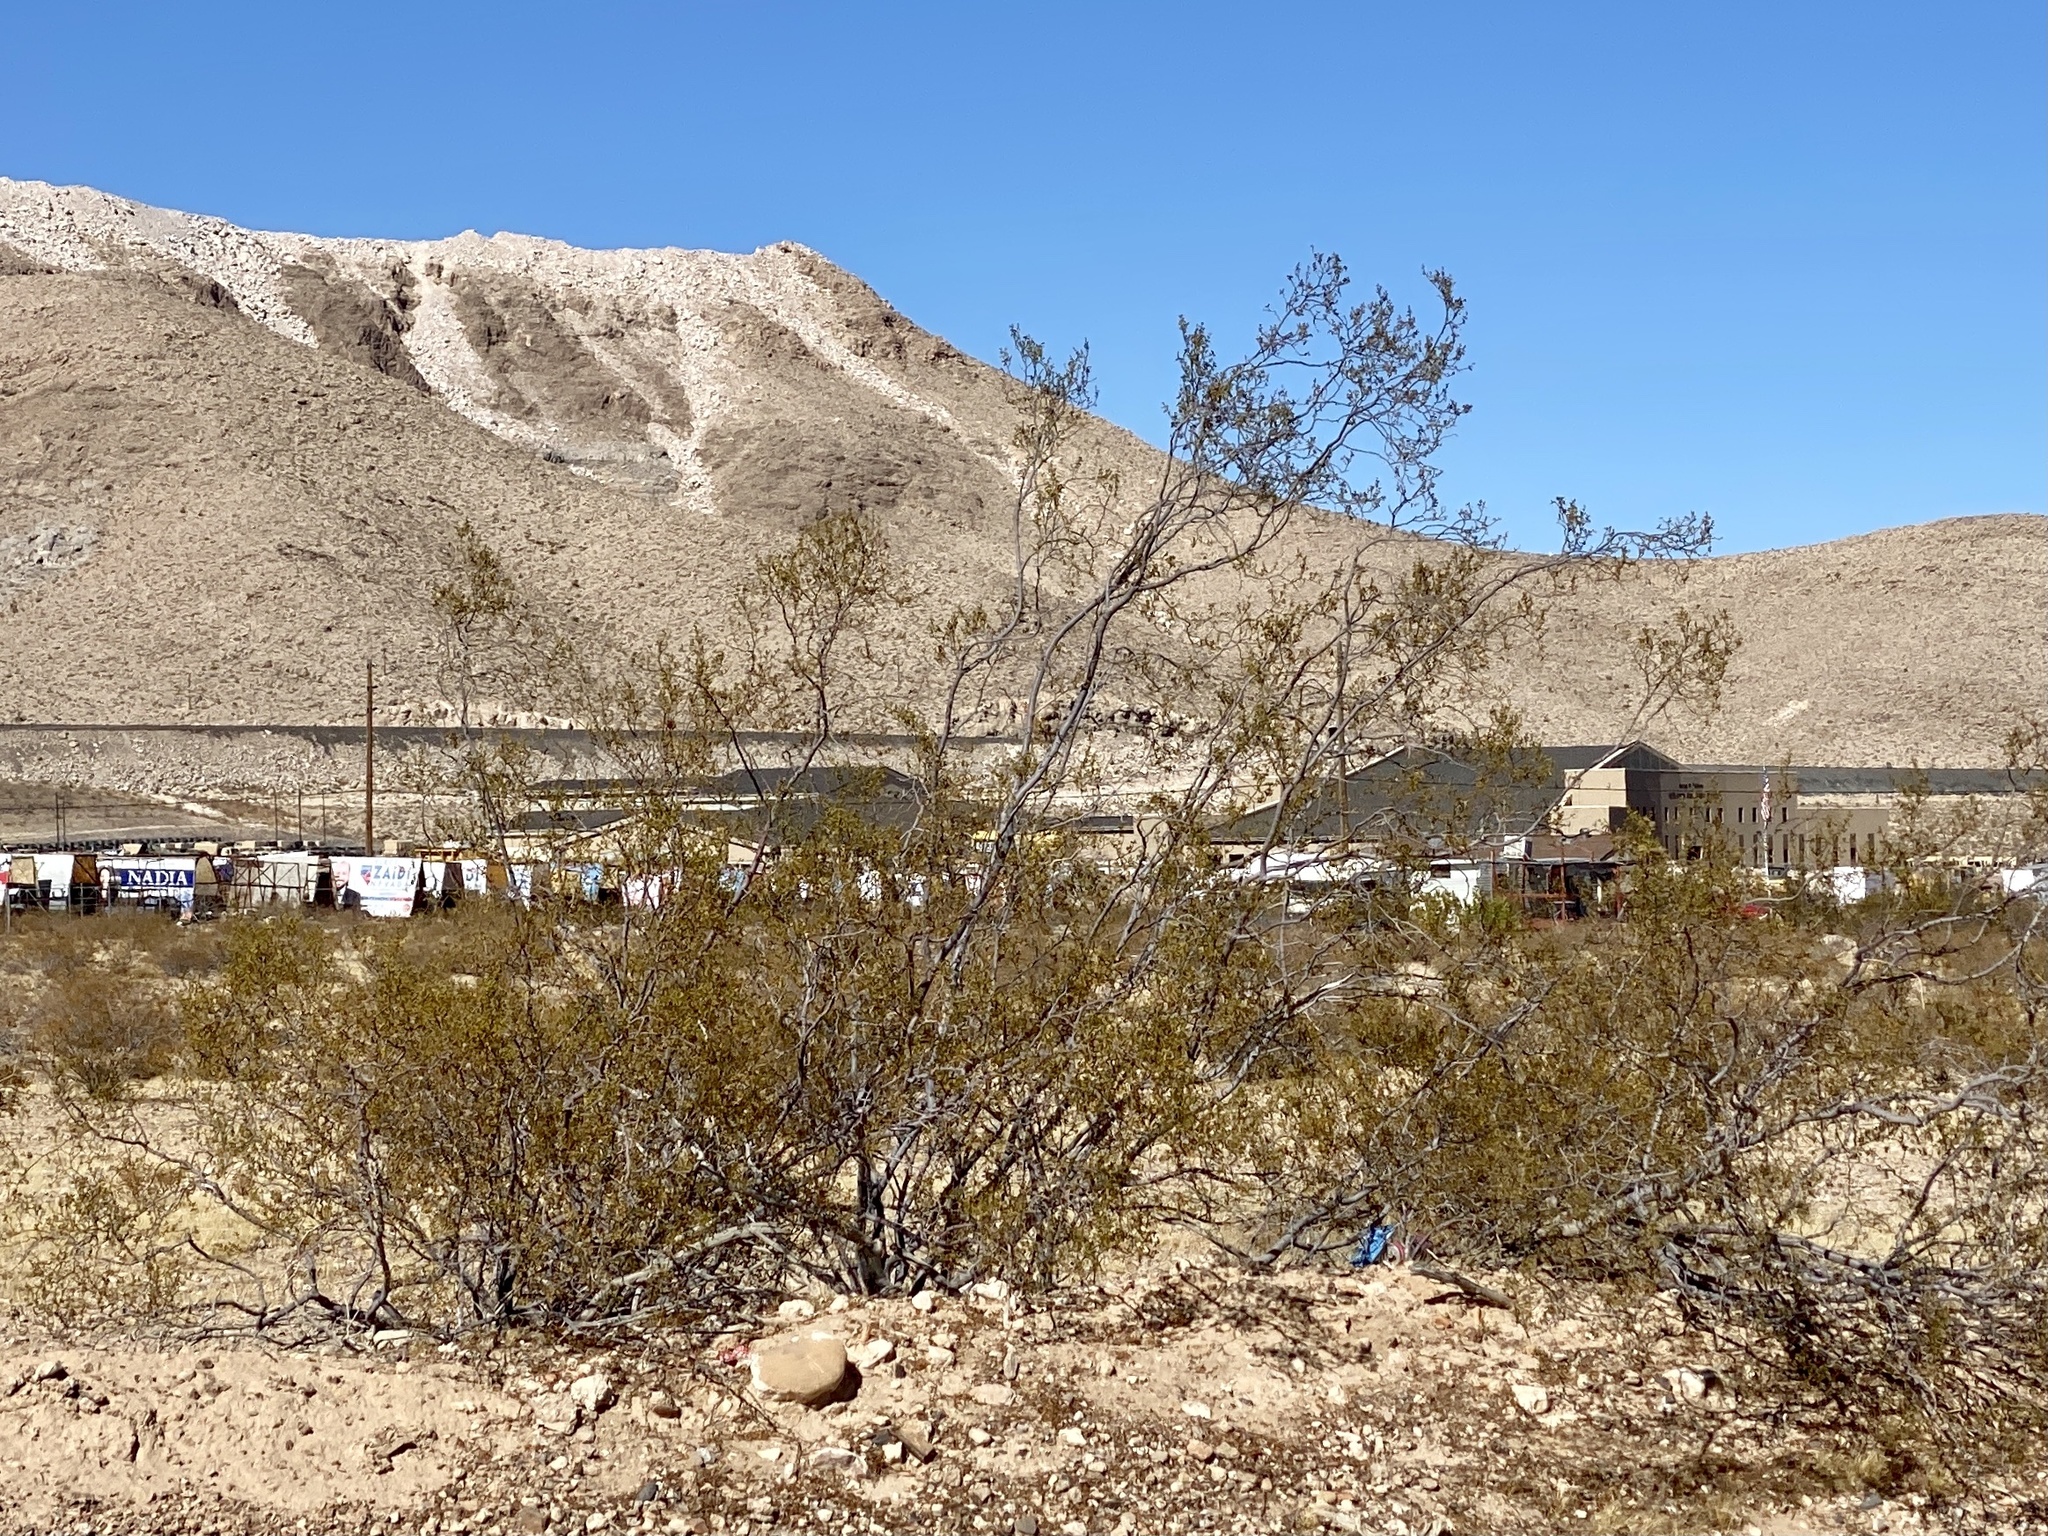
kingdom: Plantae
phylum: Tracheophyta
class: Magnoliopsida
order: Zygophyllales
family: Zygophyllaceae
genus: Larrea
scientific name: Larrea tridentata
